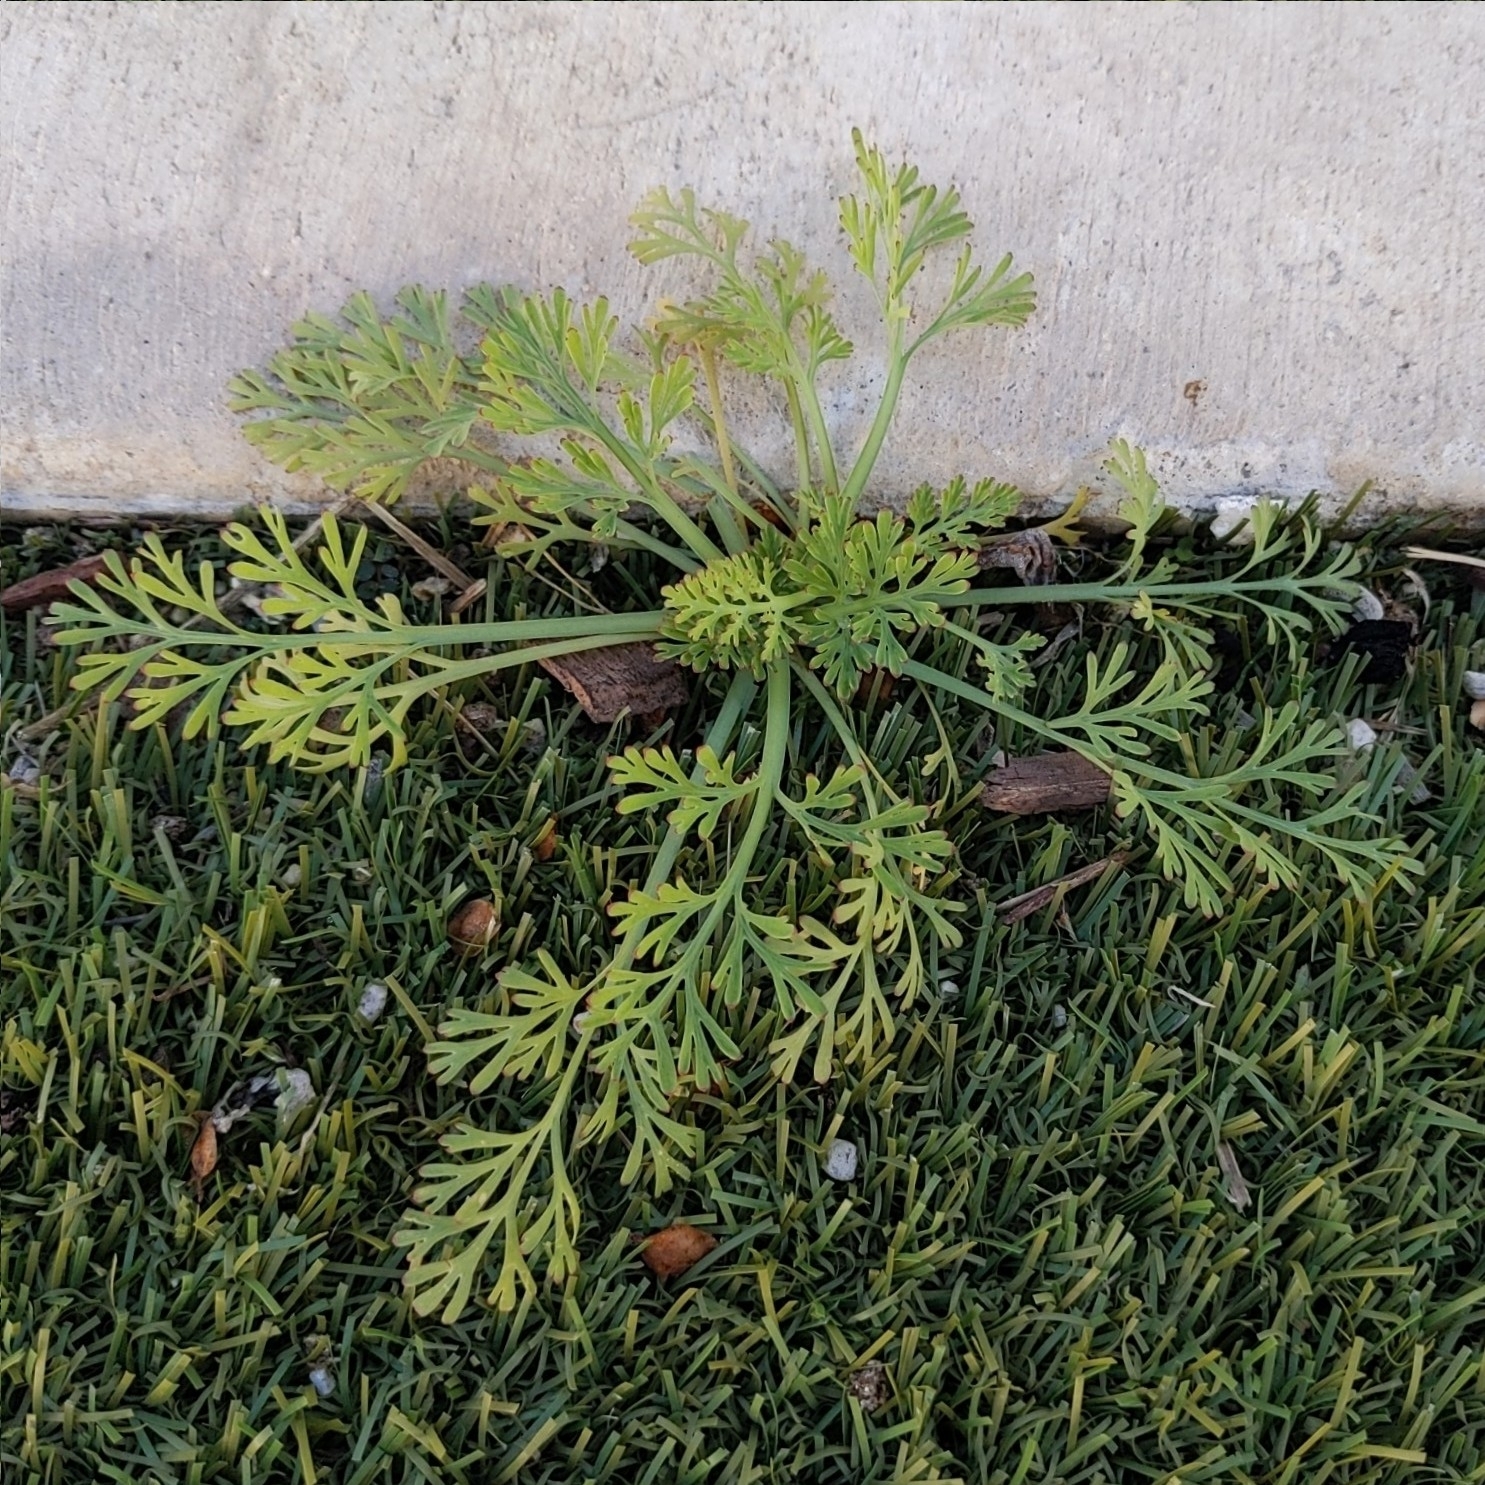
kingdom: Plantae
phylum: Tracheophyta
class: Magnoliopsida
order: Ranunculales
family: Papaveraceae
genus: Eschscholzia
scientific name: Eschscholzia californica
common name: California poppy
